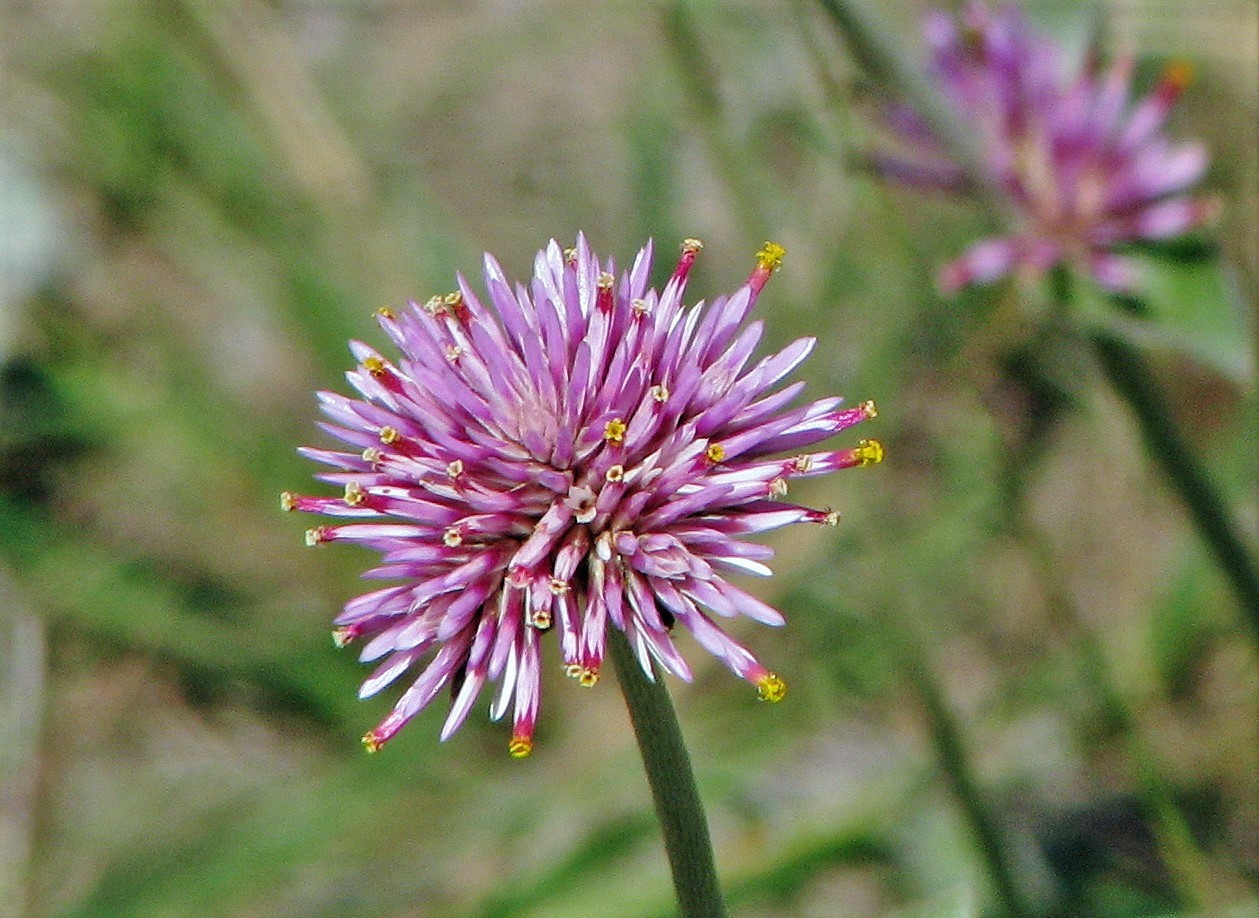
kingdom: Plantae
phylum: Tracheophyta
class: Magnoliopsida
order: Caryophyllales
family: Amaranthaceae
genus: Gomphrena
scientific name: Gomphrena pulchella
